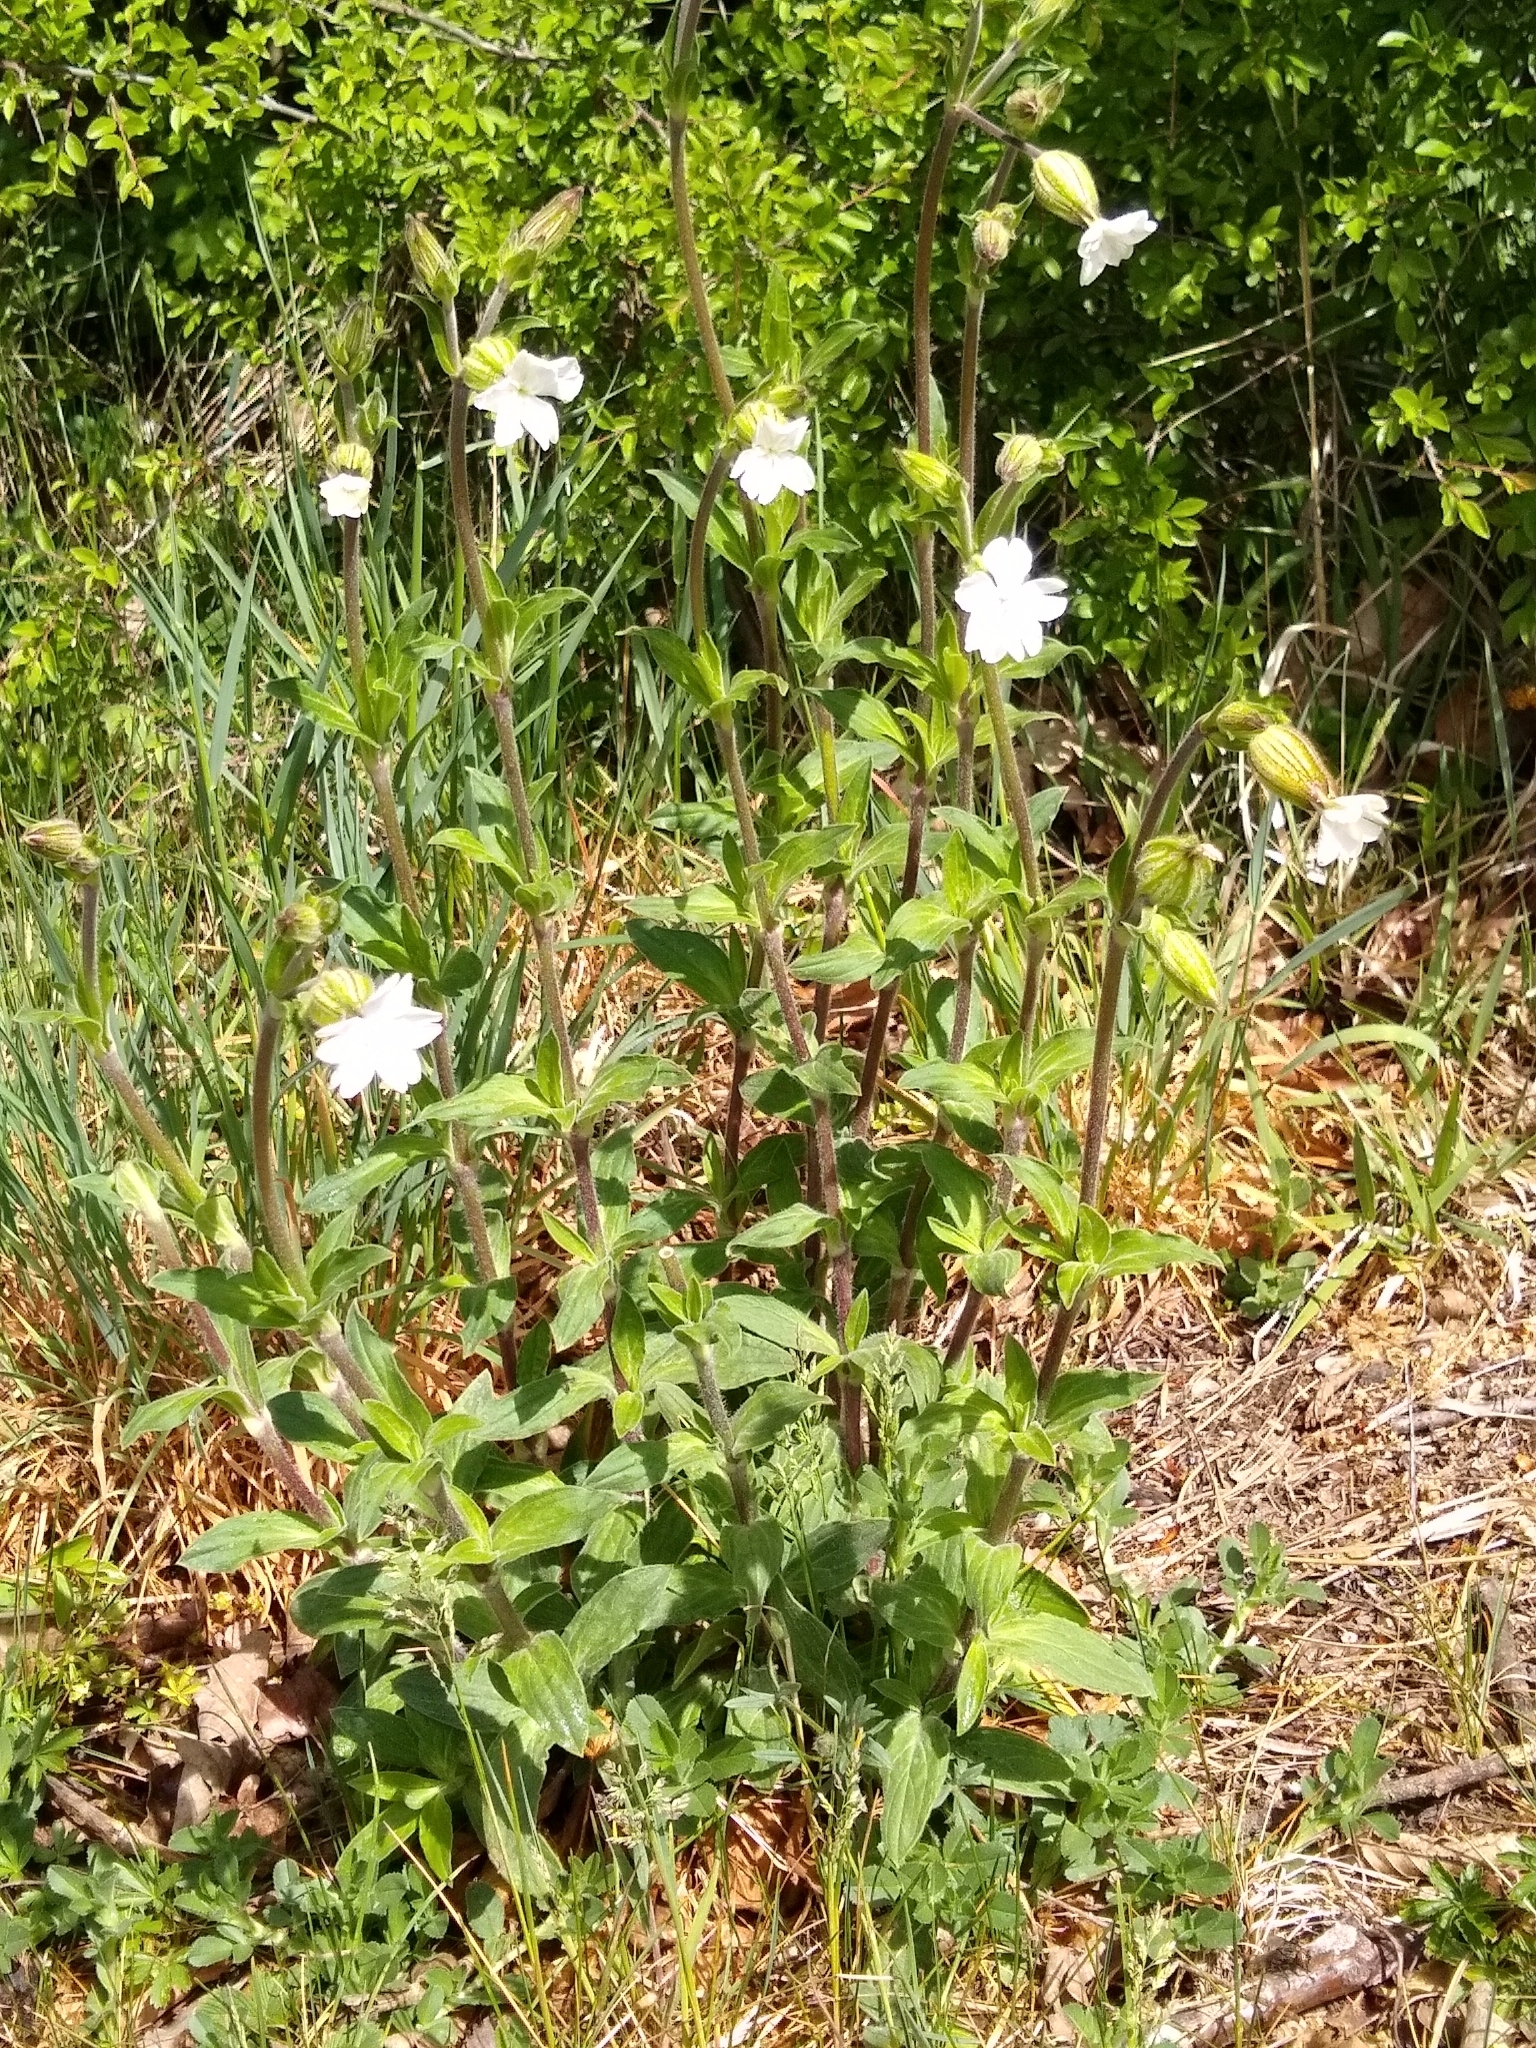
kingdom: Plantae
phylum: Tracheophyta
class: Magnoliopsida
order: Caryophyllales
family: Caryophyllaceae
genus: Silene
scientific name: Silene latifolia
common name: White campion
